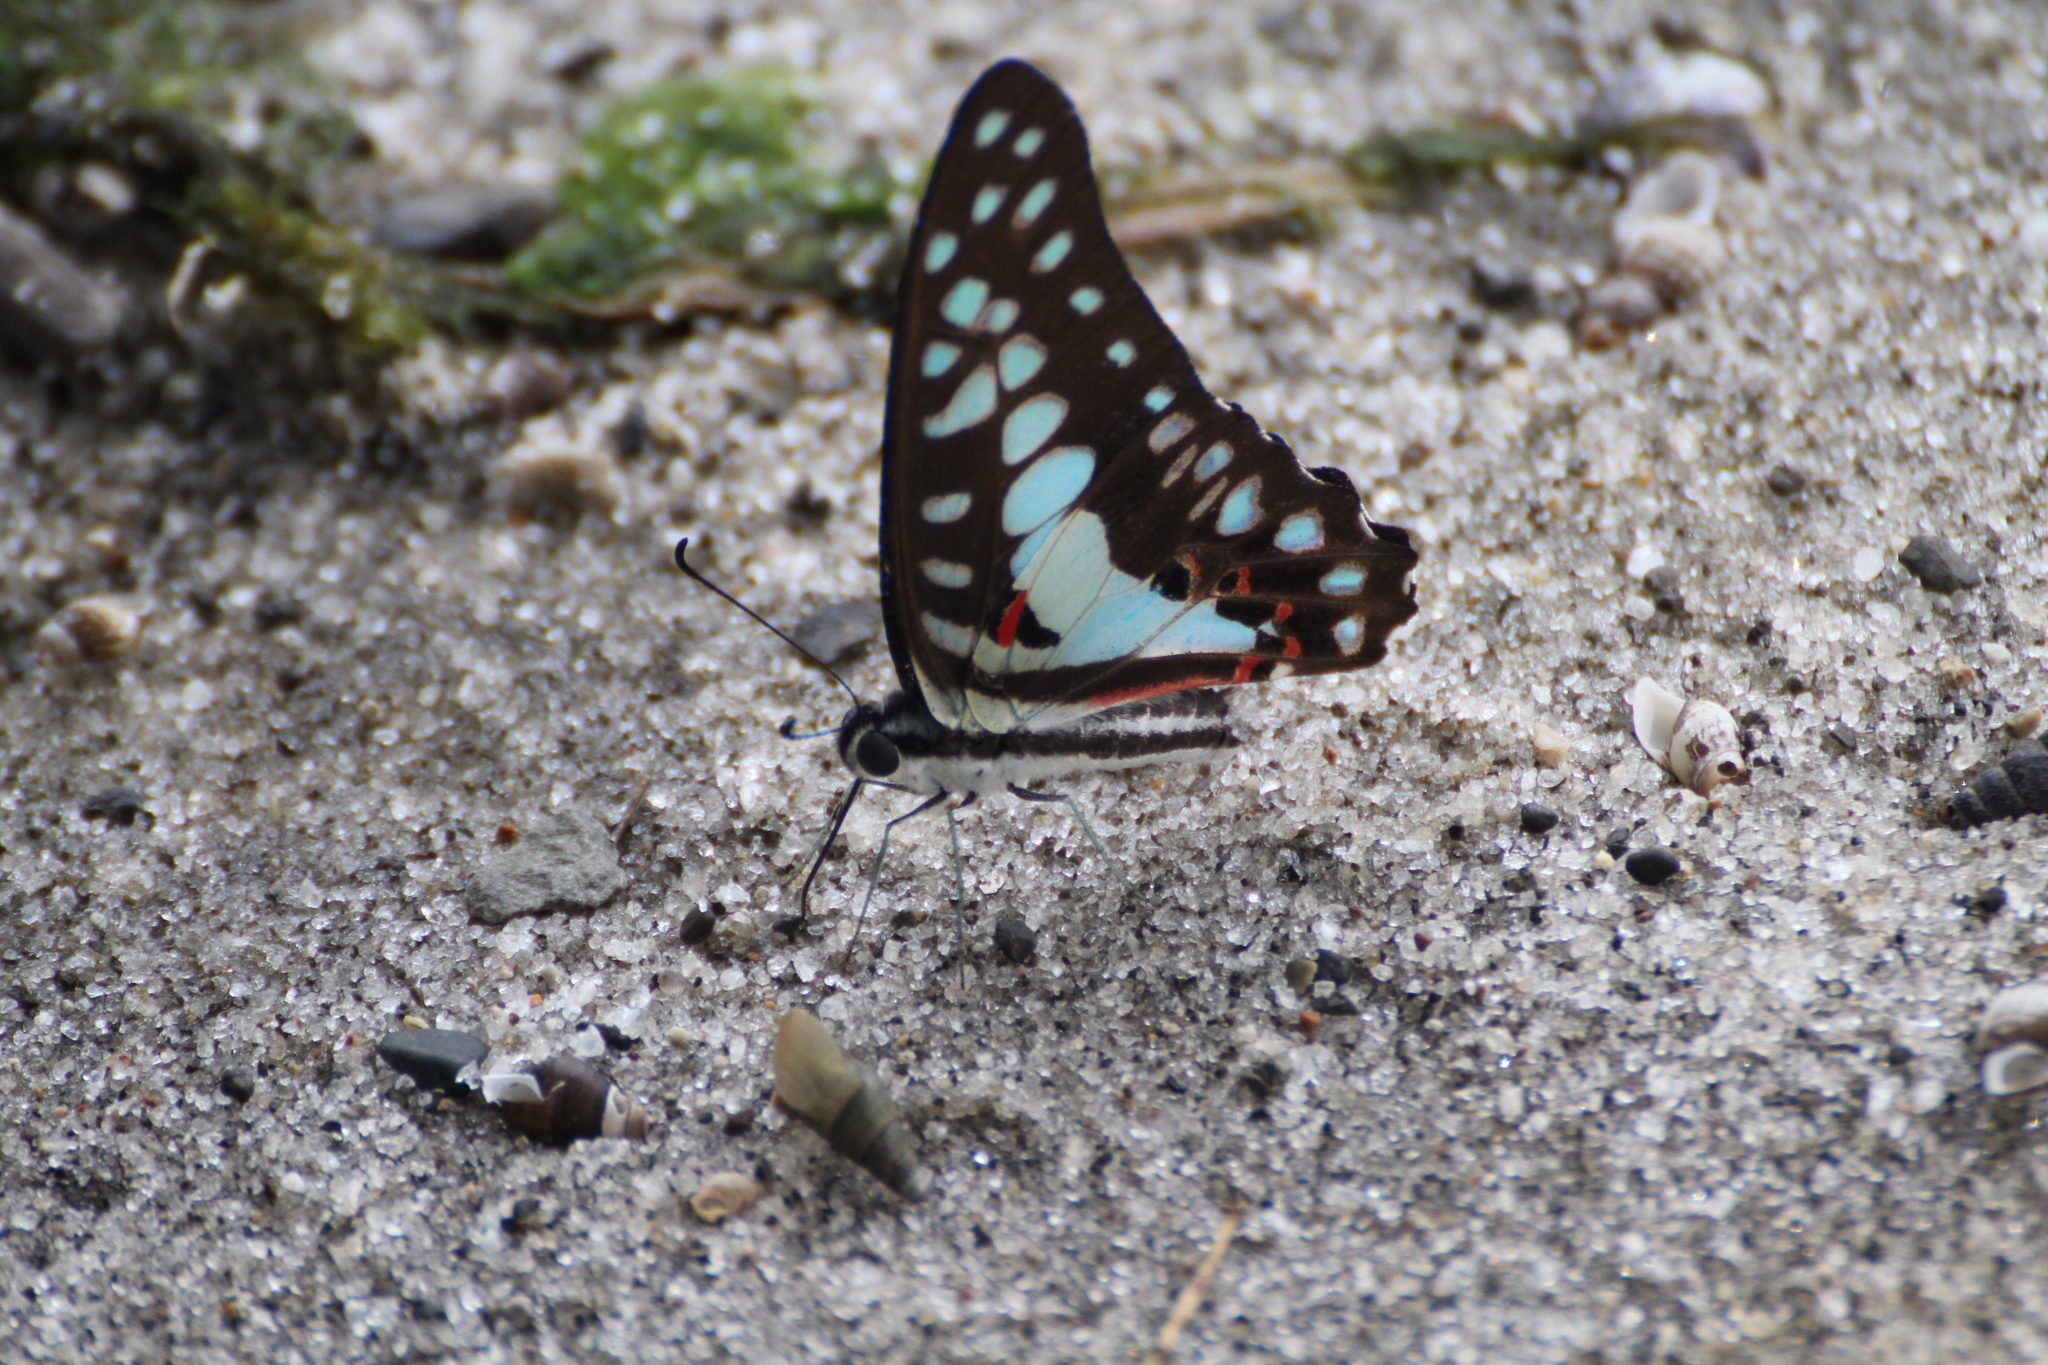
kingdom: Animalia
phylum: Arthropoda
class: Insecta
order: Lepidoptera
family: Papilionidae
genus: Graphium
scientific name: Graphium doson
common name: Common jay
